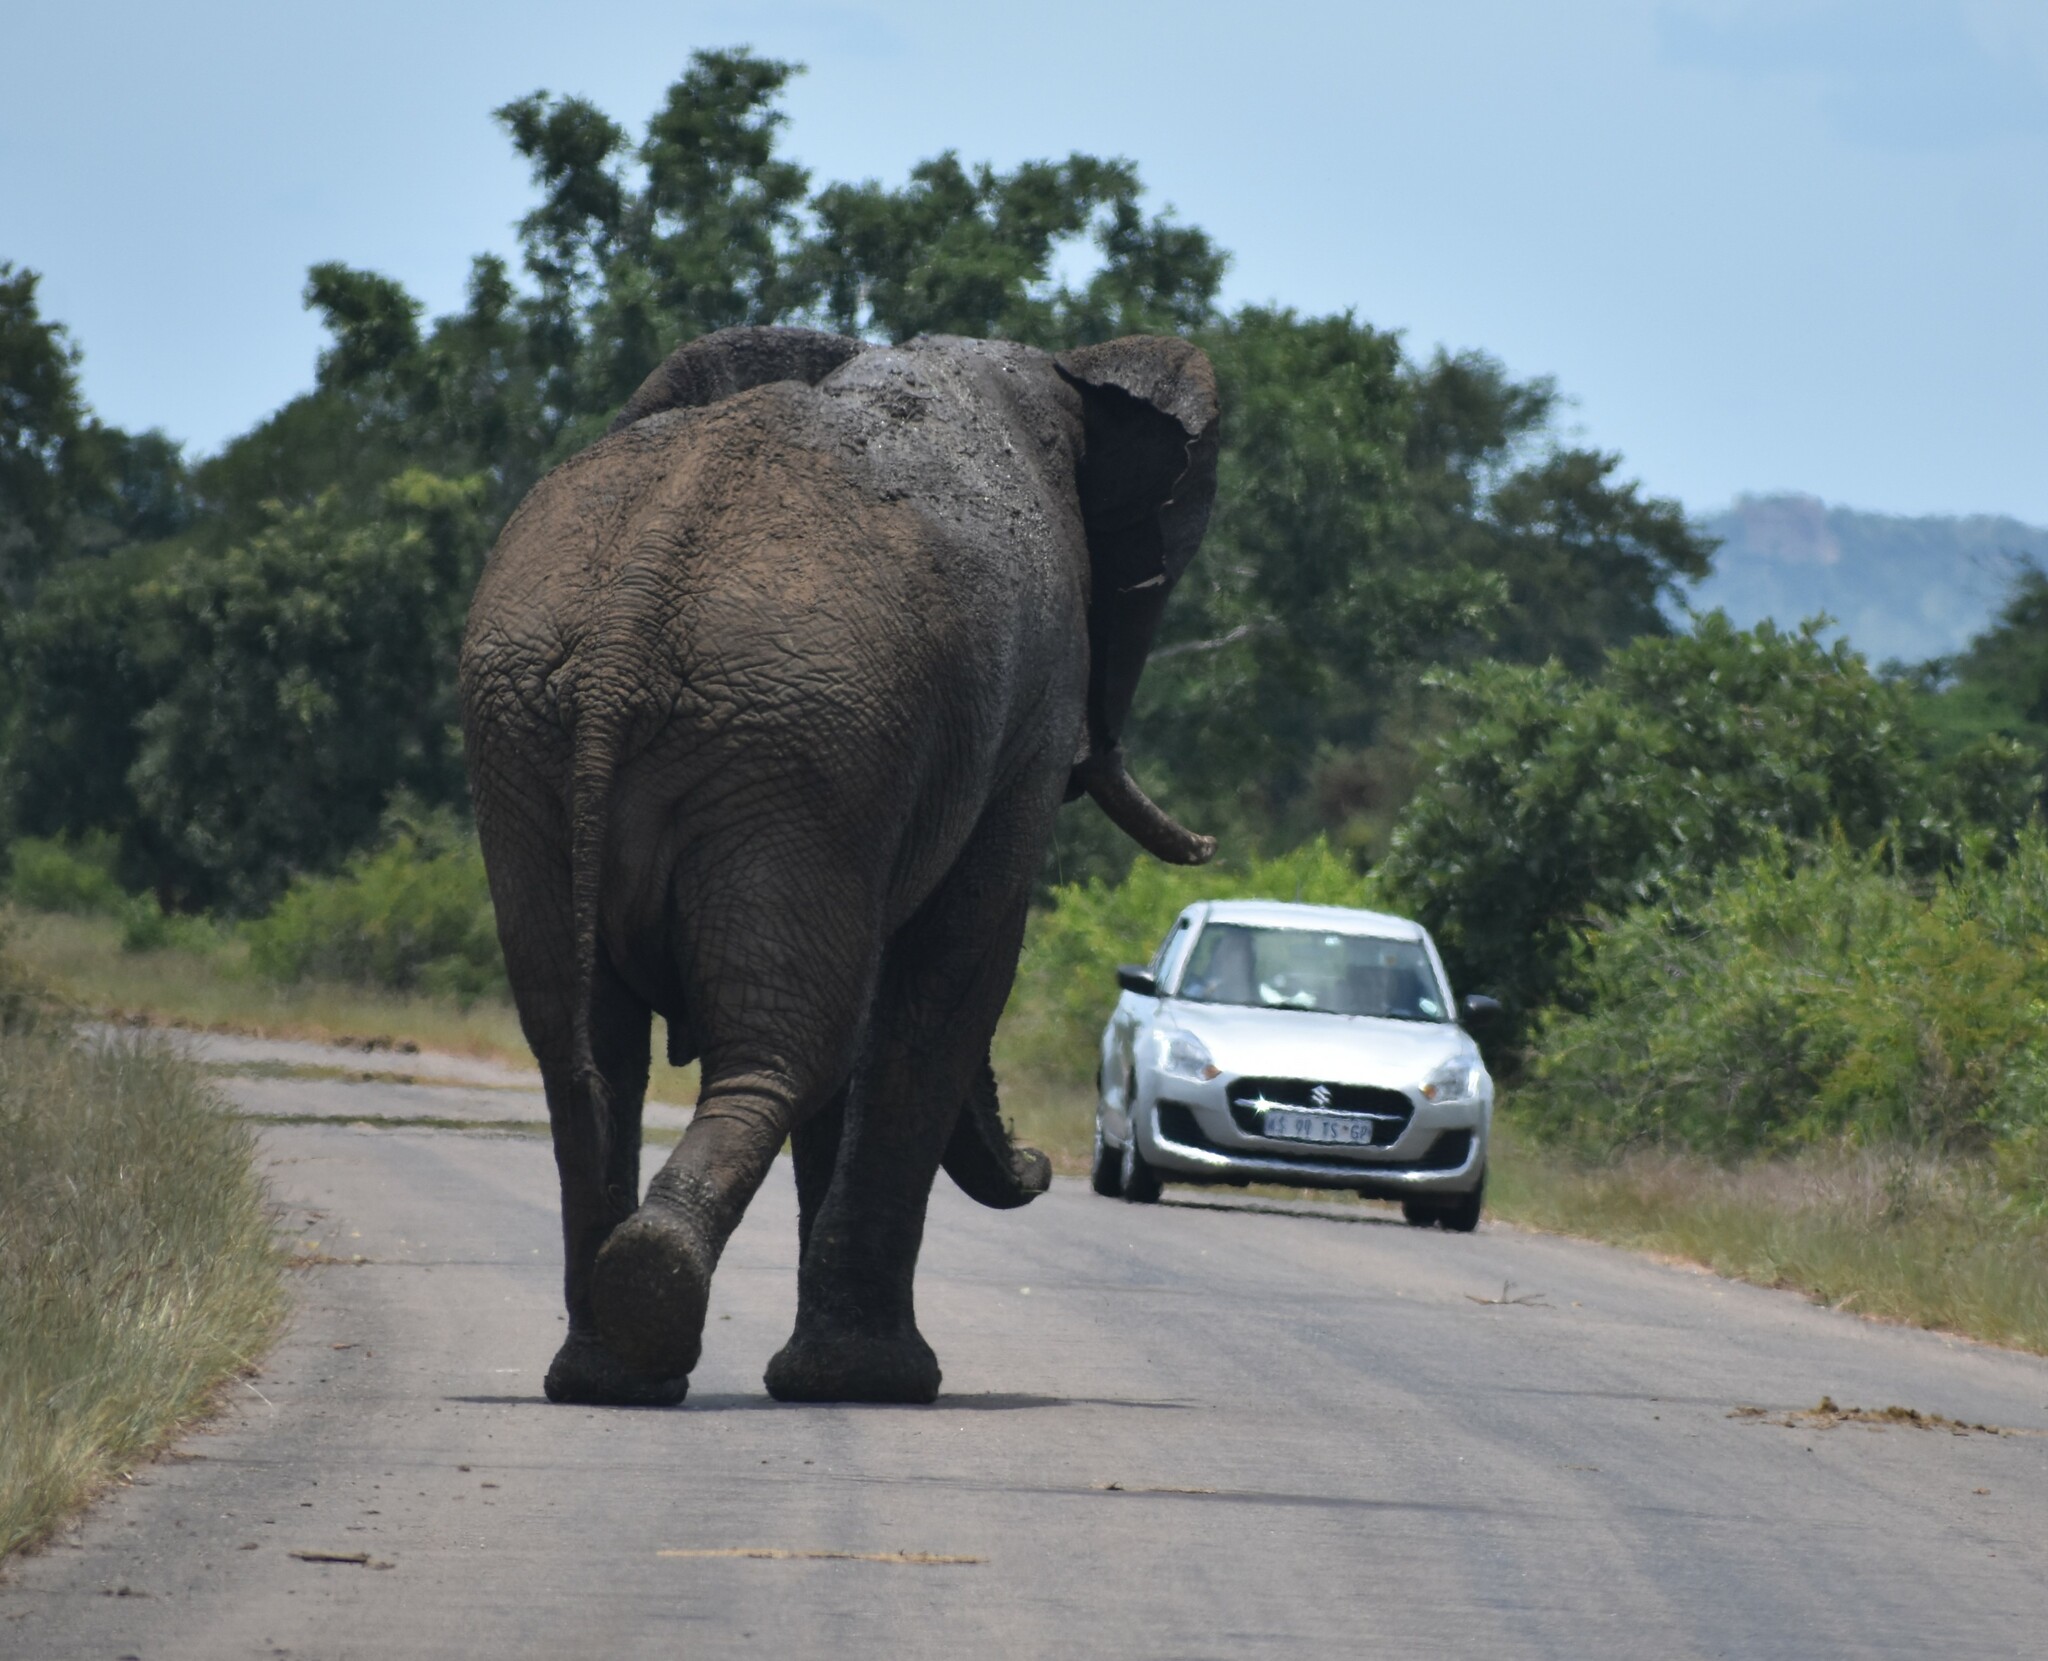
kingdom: Animalia
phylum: Chordata
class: Mammalia
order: Proboscidea
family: Elephantidae
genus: Loxodonta
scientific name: Loxodonta africana
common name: African elephant
